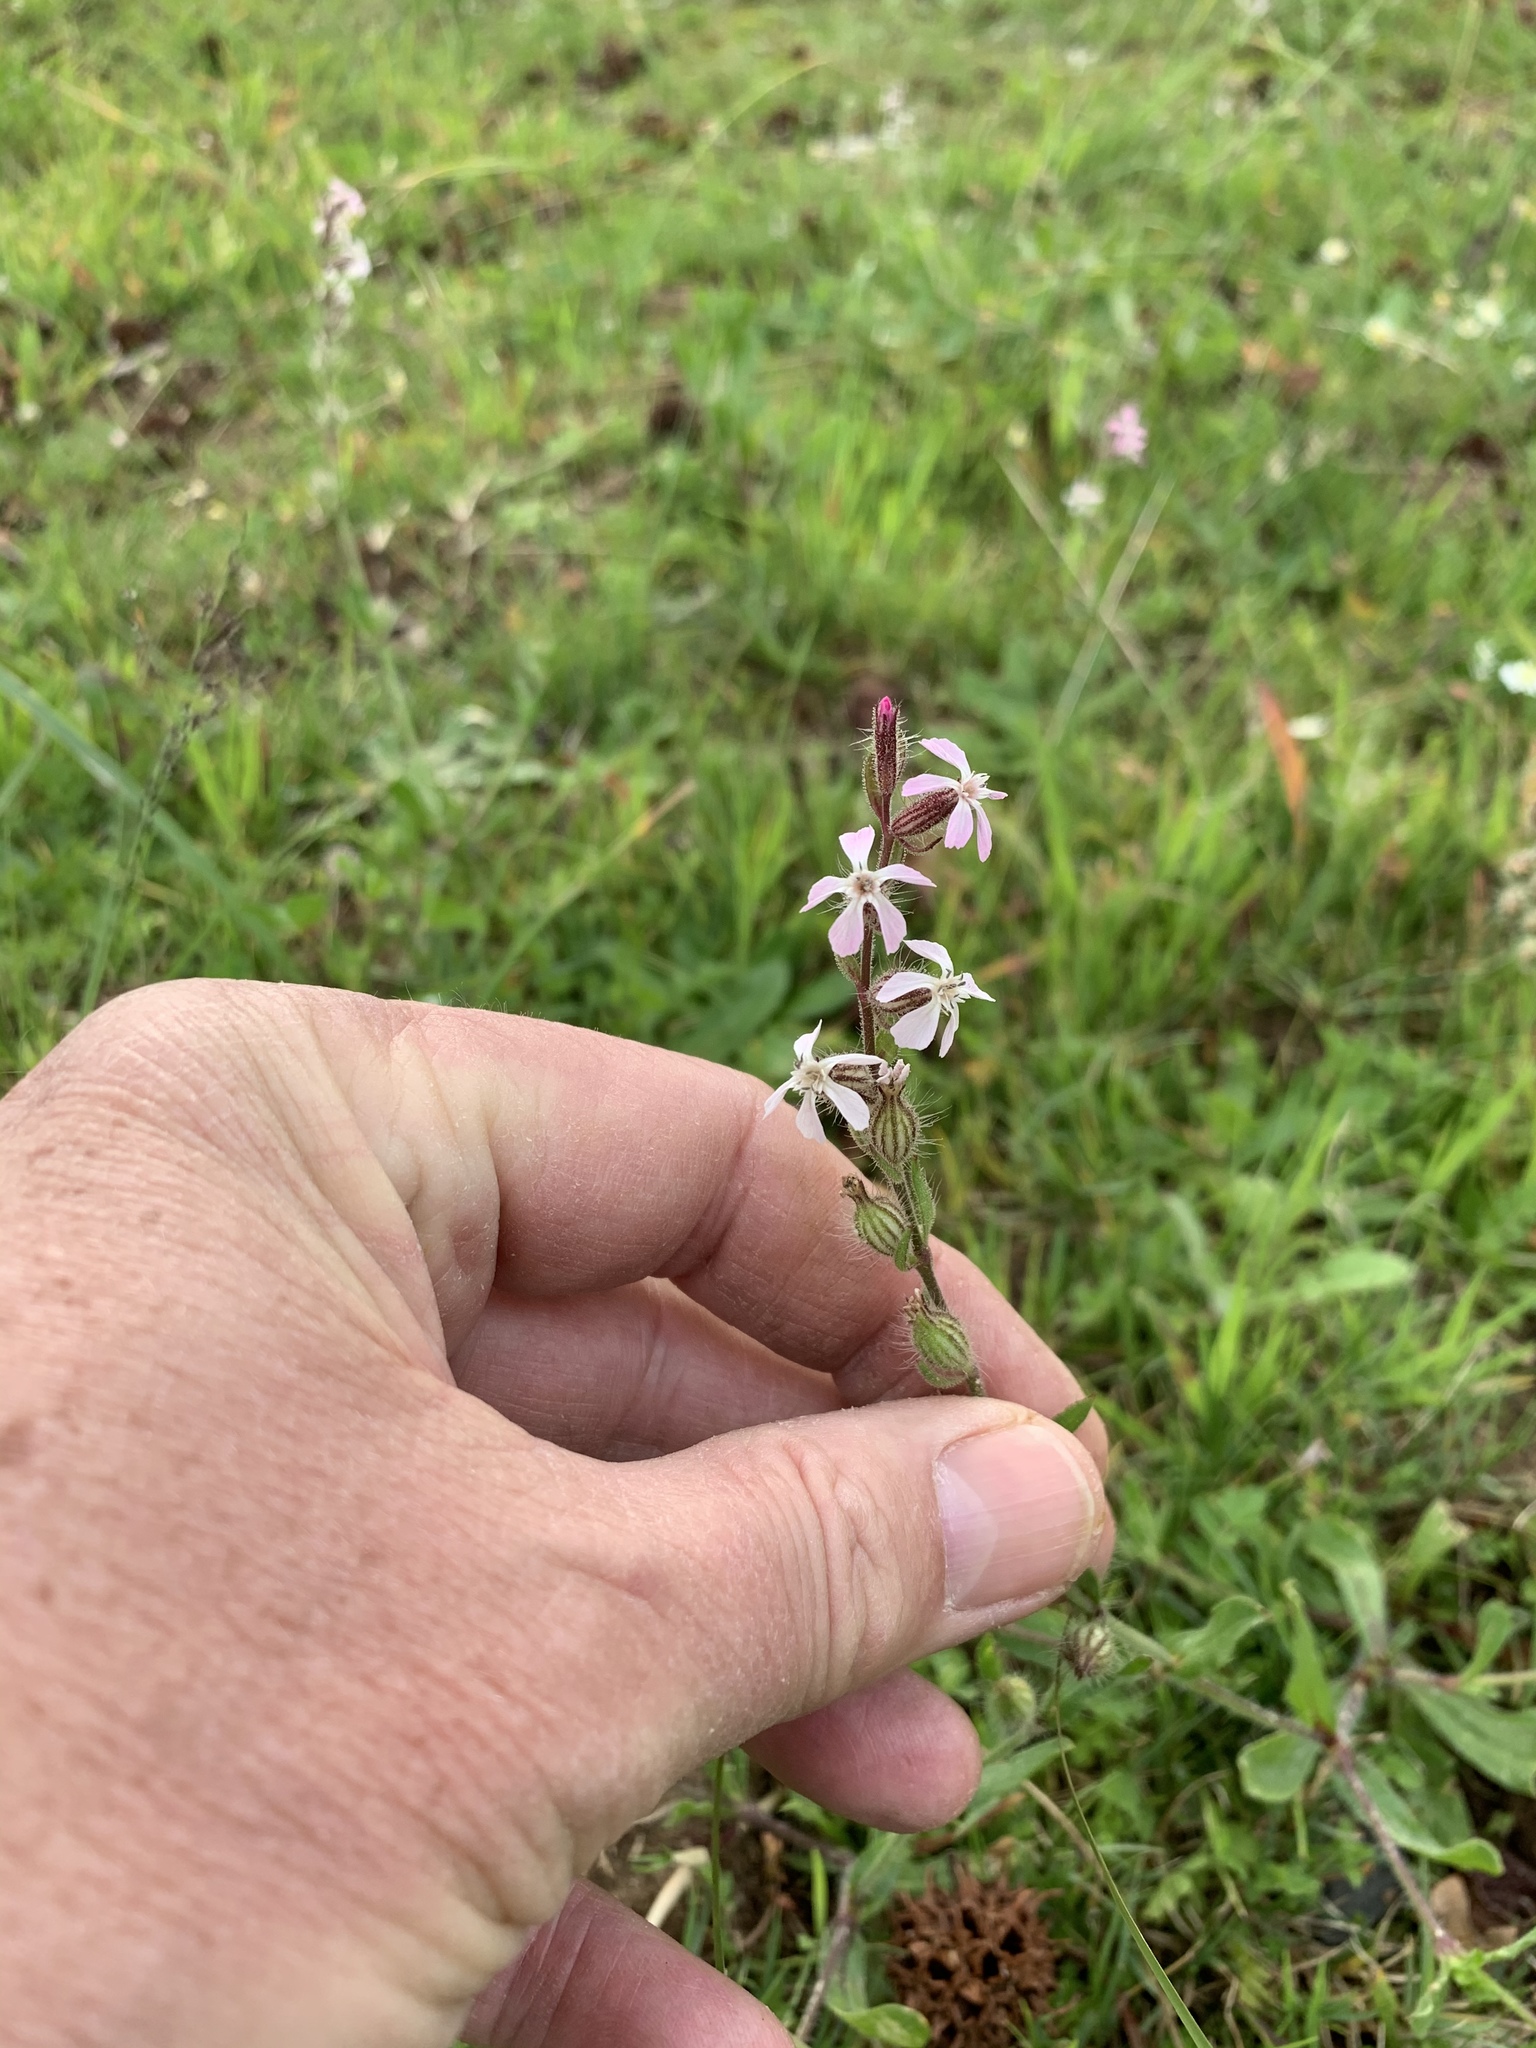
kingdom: Plantae
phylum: Tracheophyta
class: Magnoliopsida
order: Caryophyllales
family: Caryophyllaceae
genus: Silene
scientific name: Silene gallica
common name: Small-flowered catchfly
